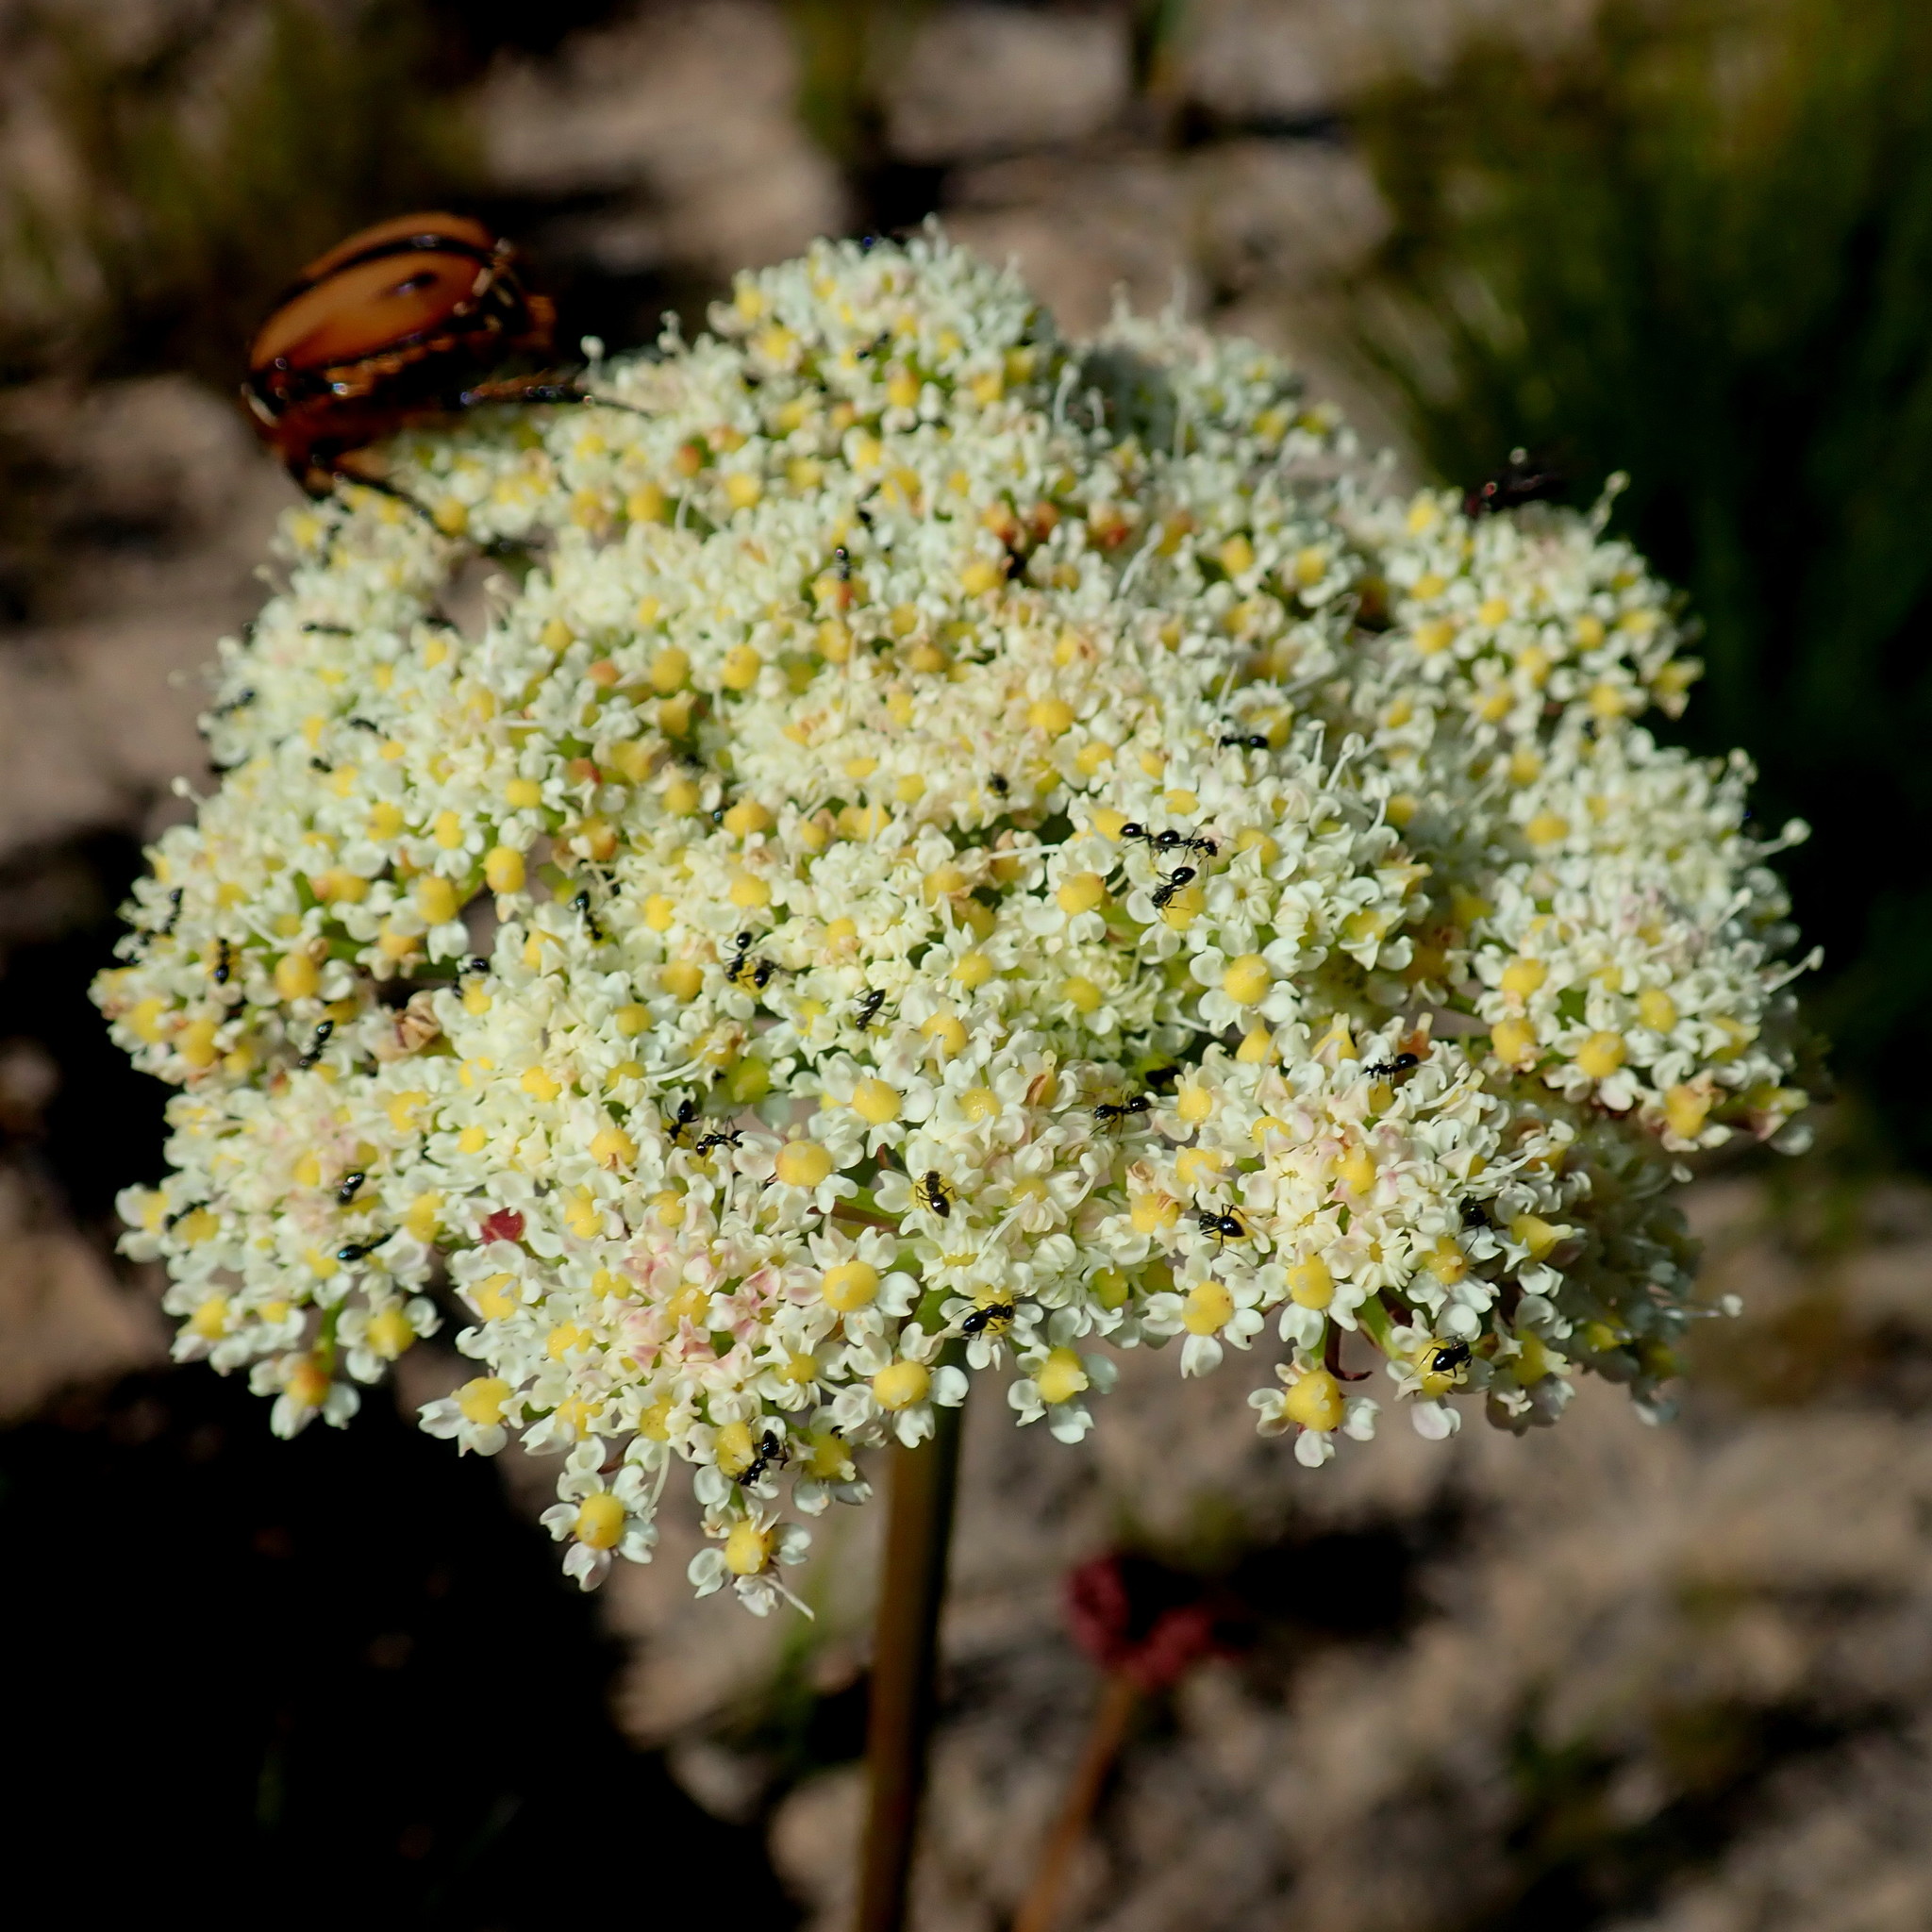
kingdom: Animalia
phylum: Arthropoda
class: Insecta
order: Hymenoptera
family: Formicidae
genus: Lepisiota
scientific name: Lepisiota capensis
